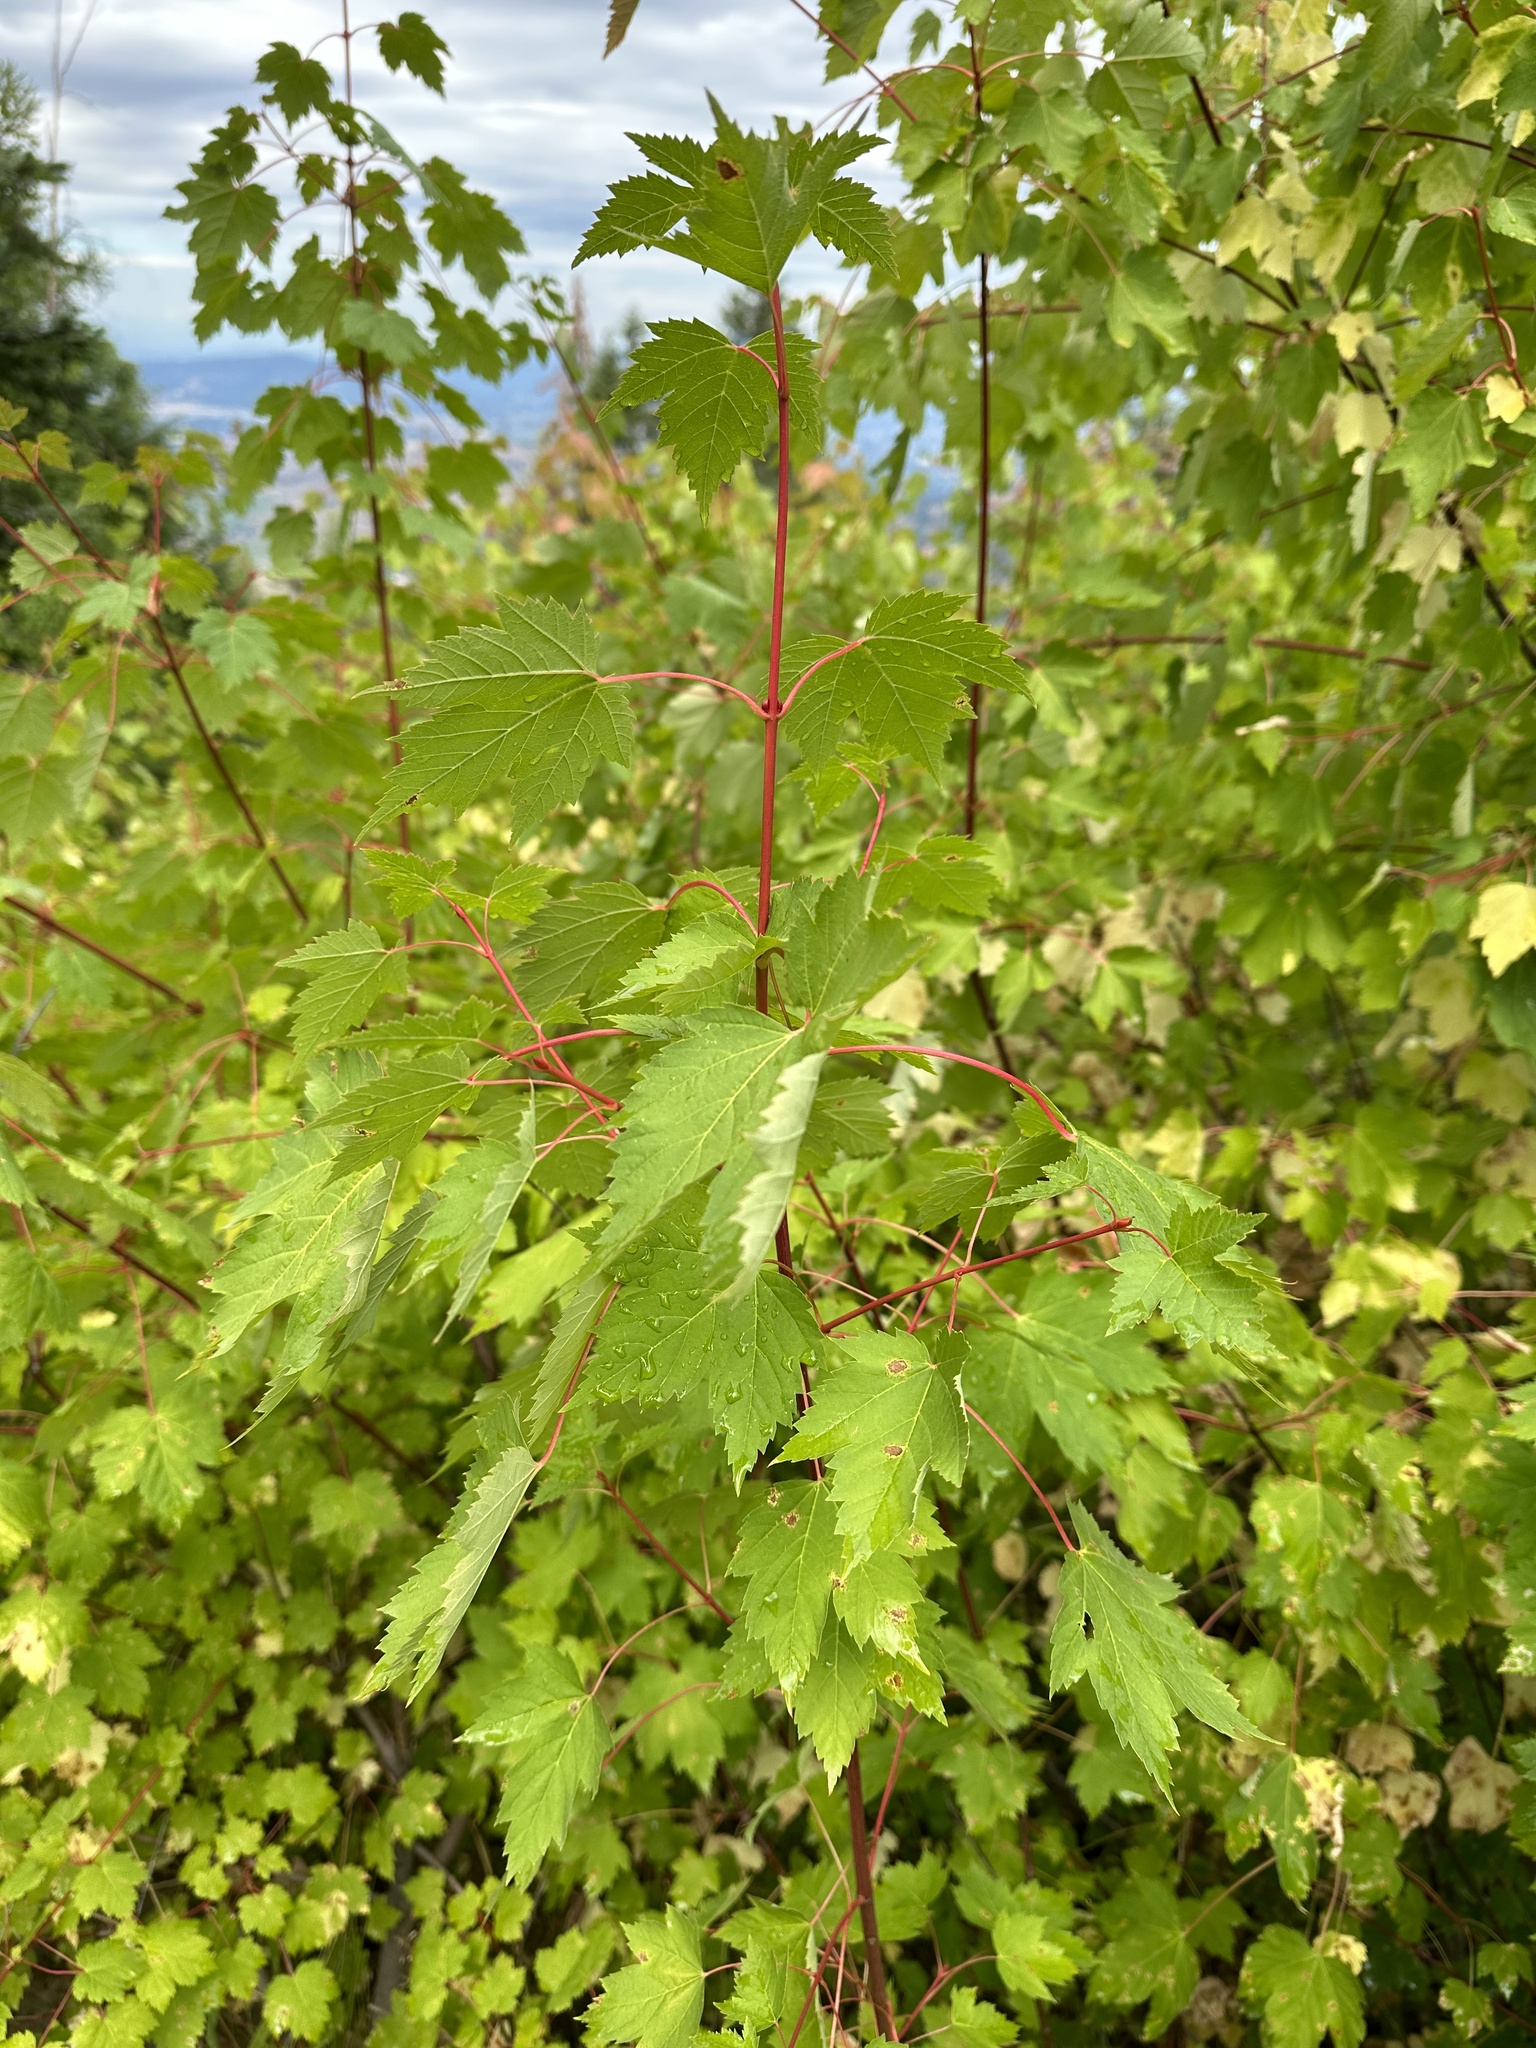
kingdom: Plantae
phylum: Tracheophyta
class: Magnoliopsida
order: Sapindales
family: Sapindaceae
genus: Acer
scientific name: Acer glabrum
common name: Rocky mountain maple
